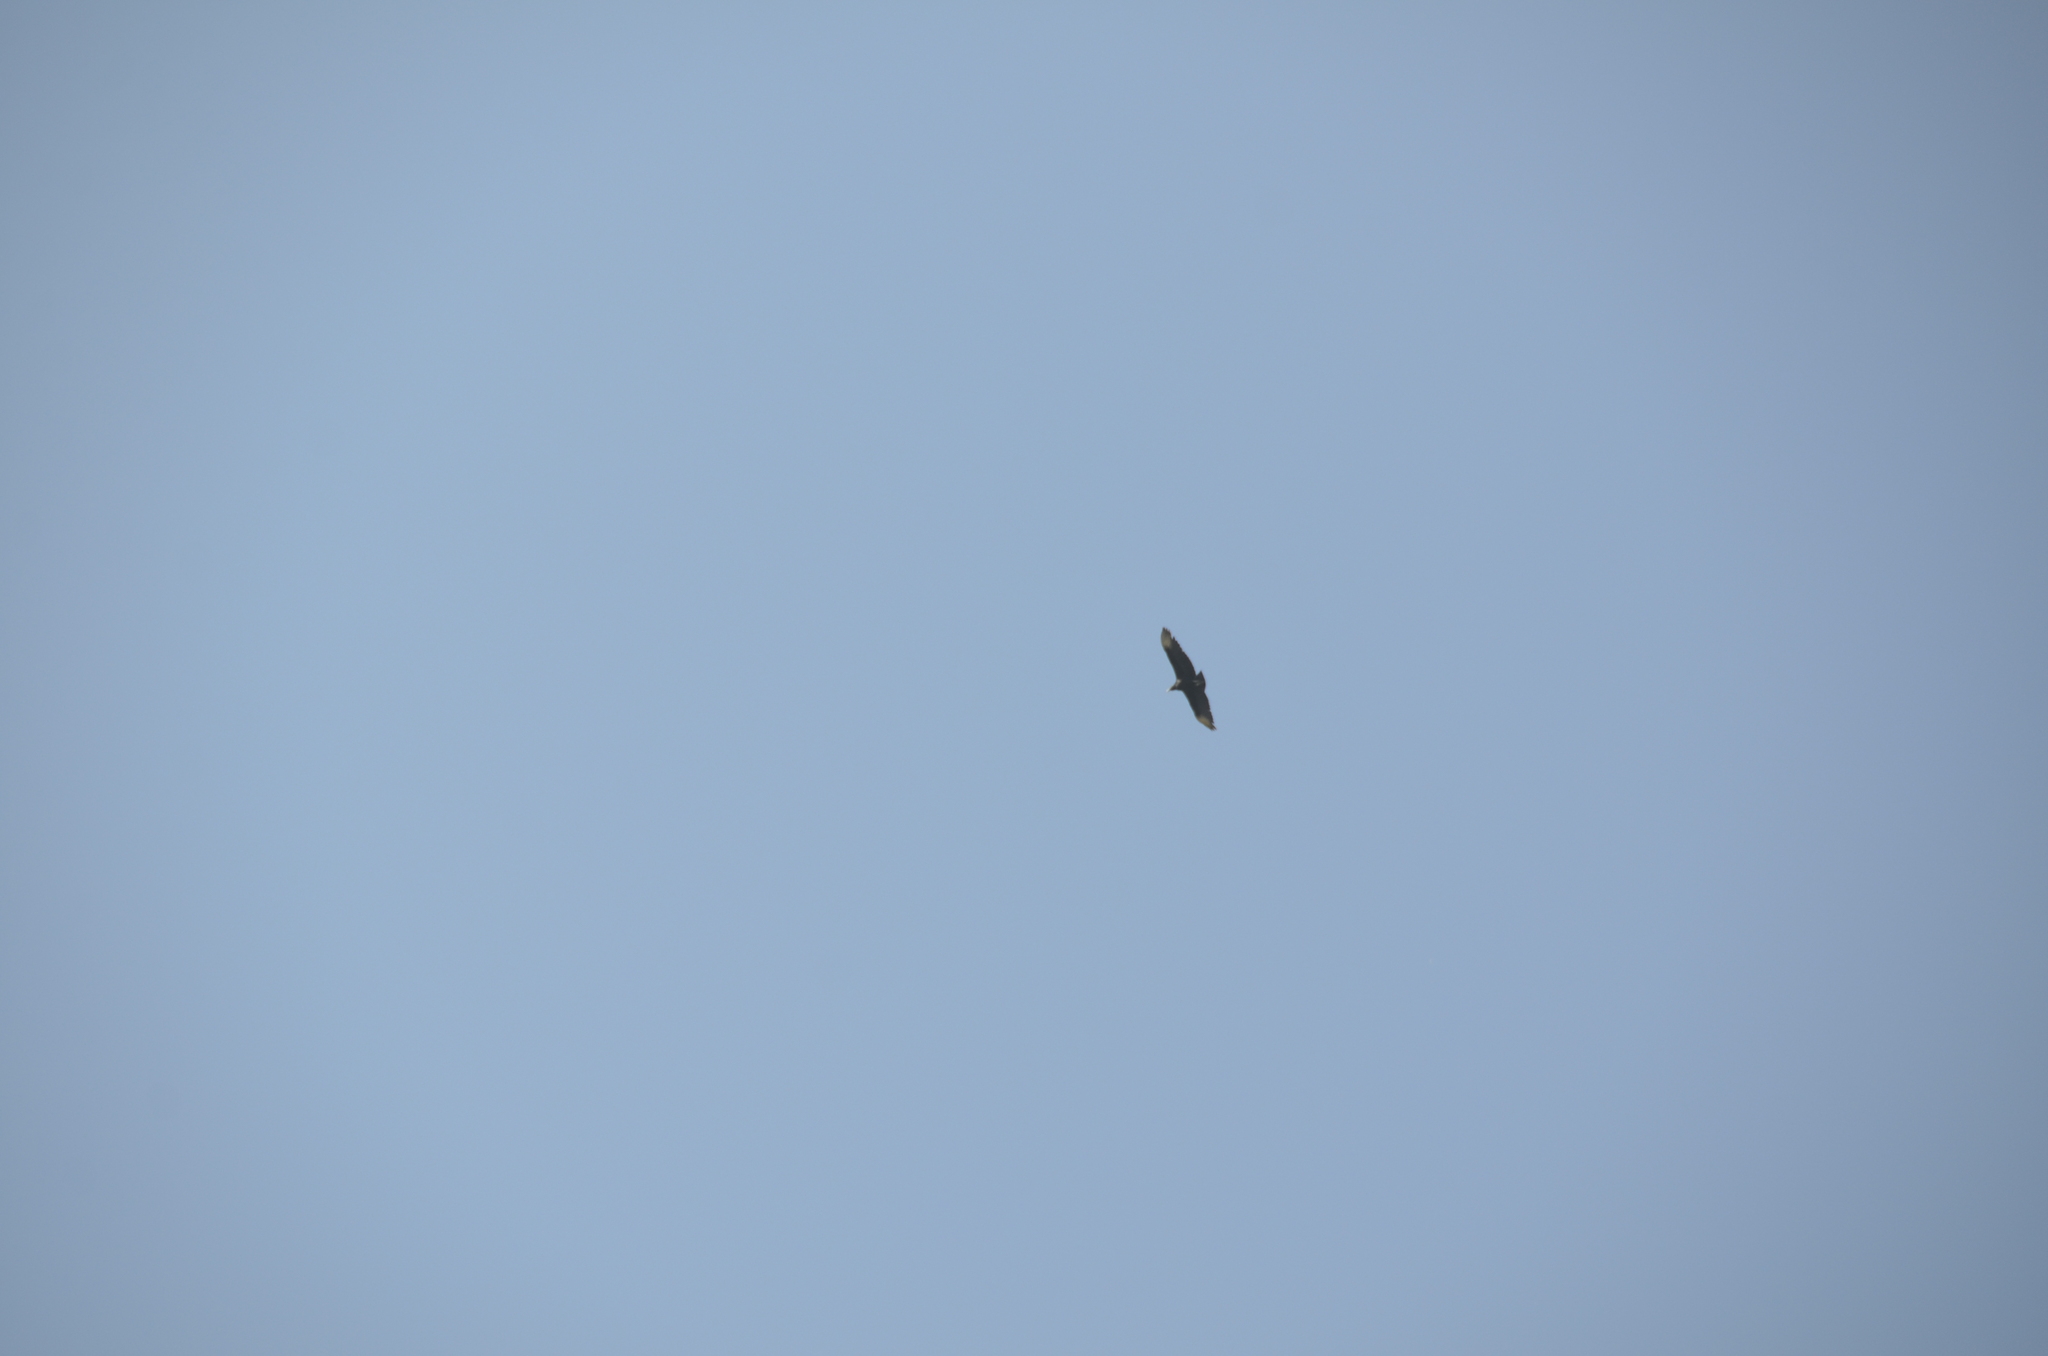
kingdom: Animalia
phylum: Chordata
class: Aves
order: Accipitriformes
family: Cathartidae
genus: Coragyps
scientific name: Coragyps atratus
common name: Black vulture
